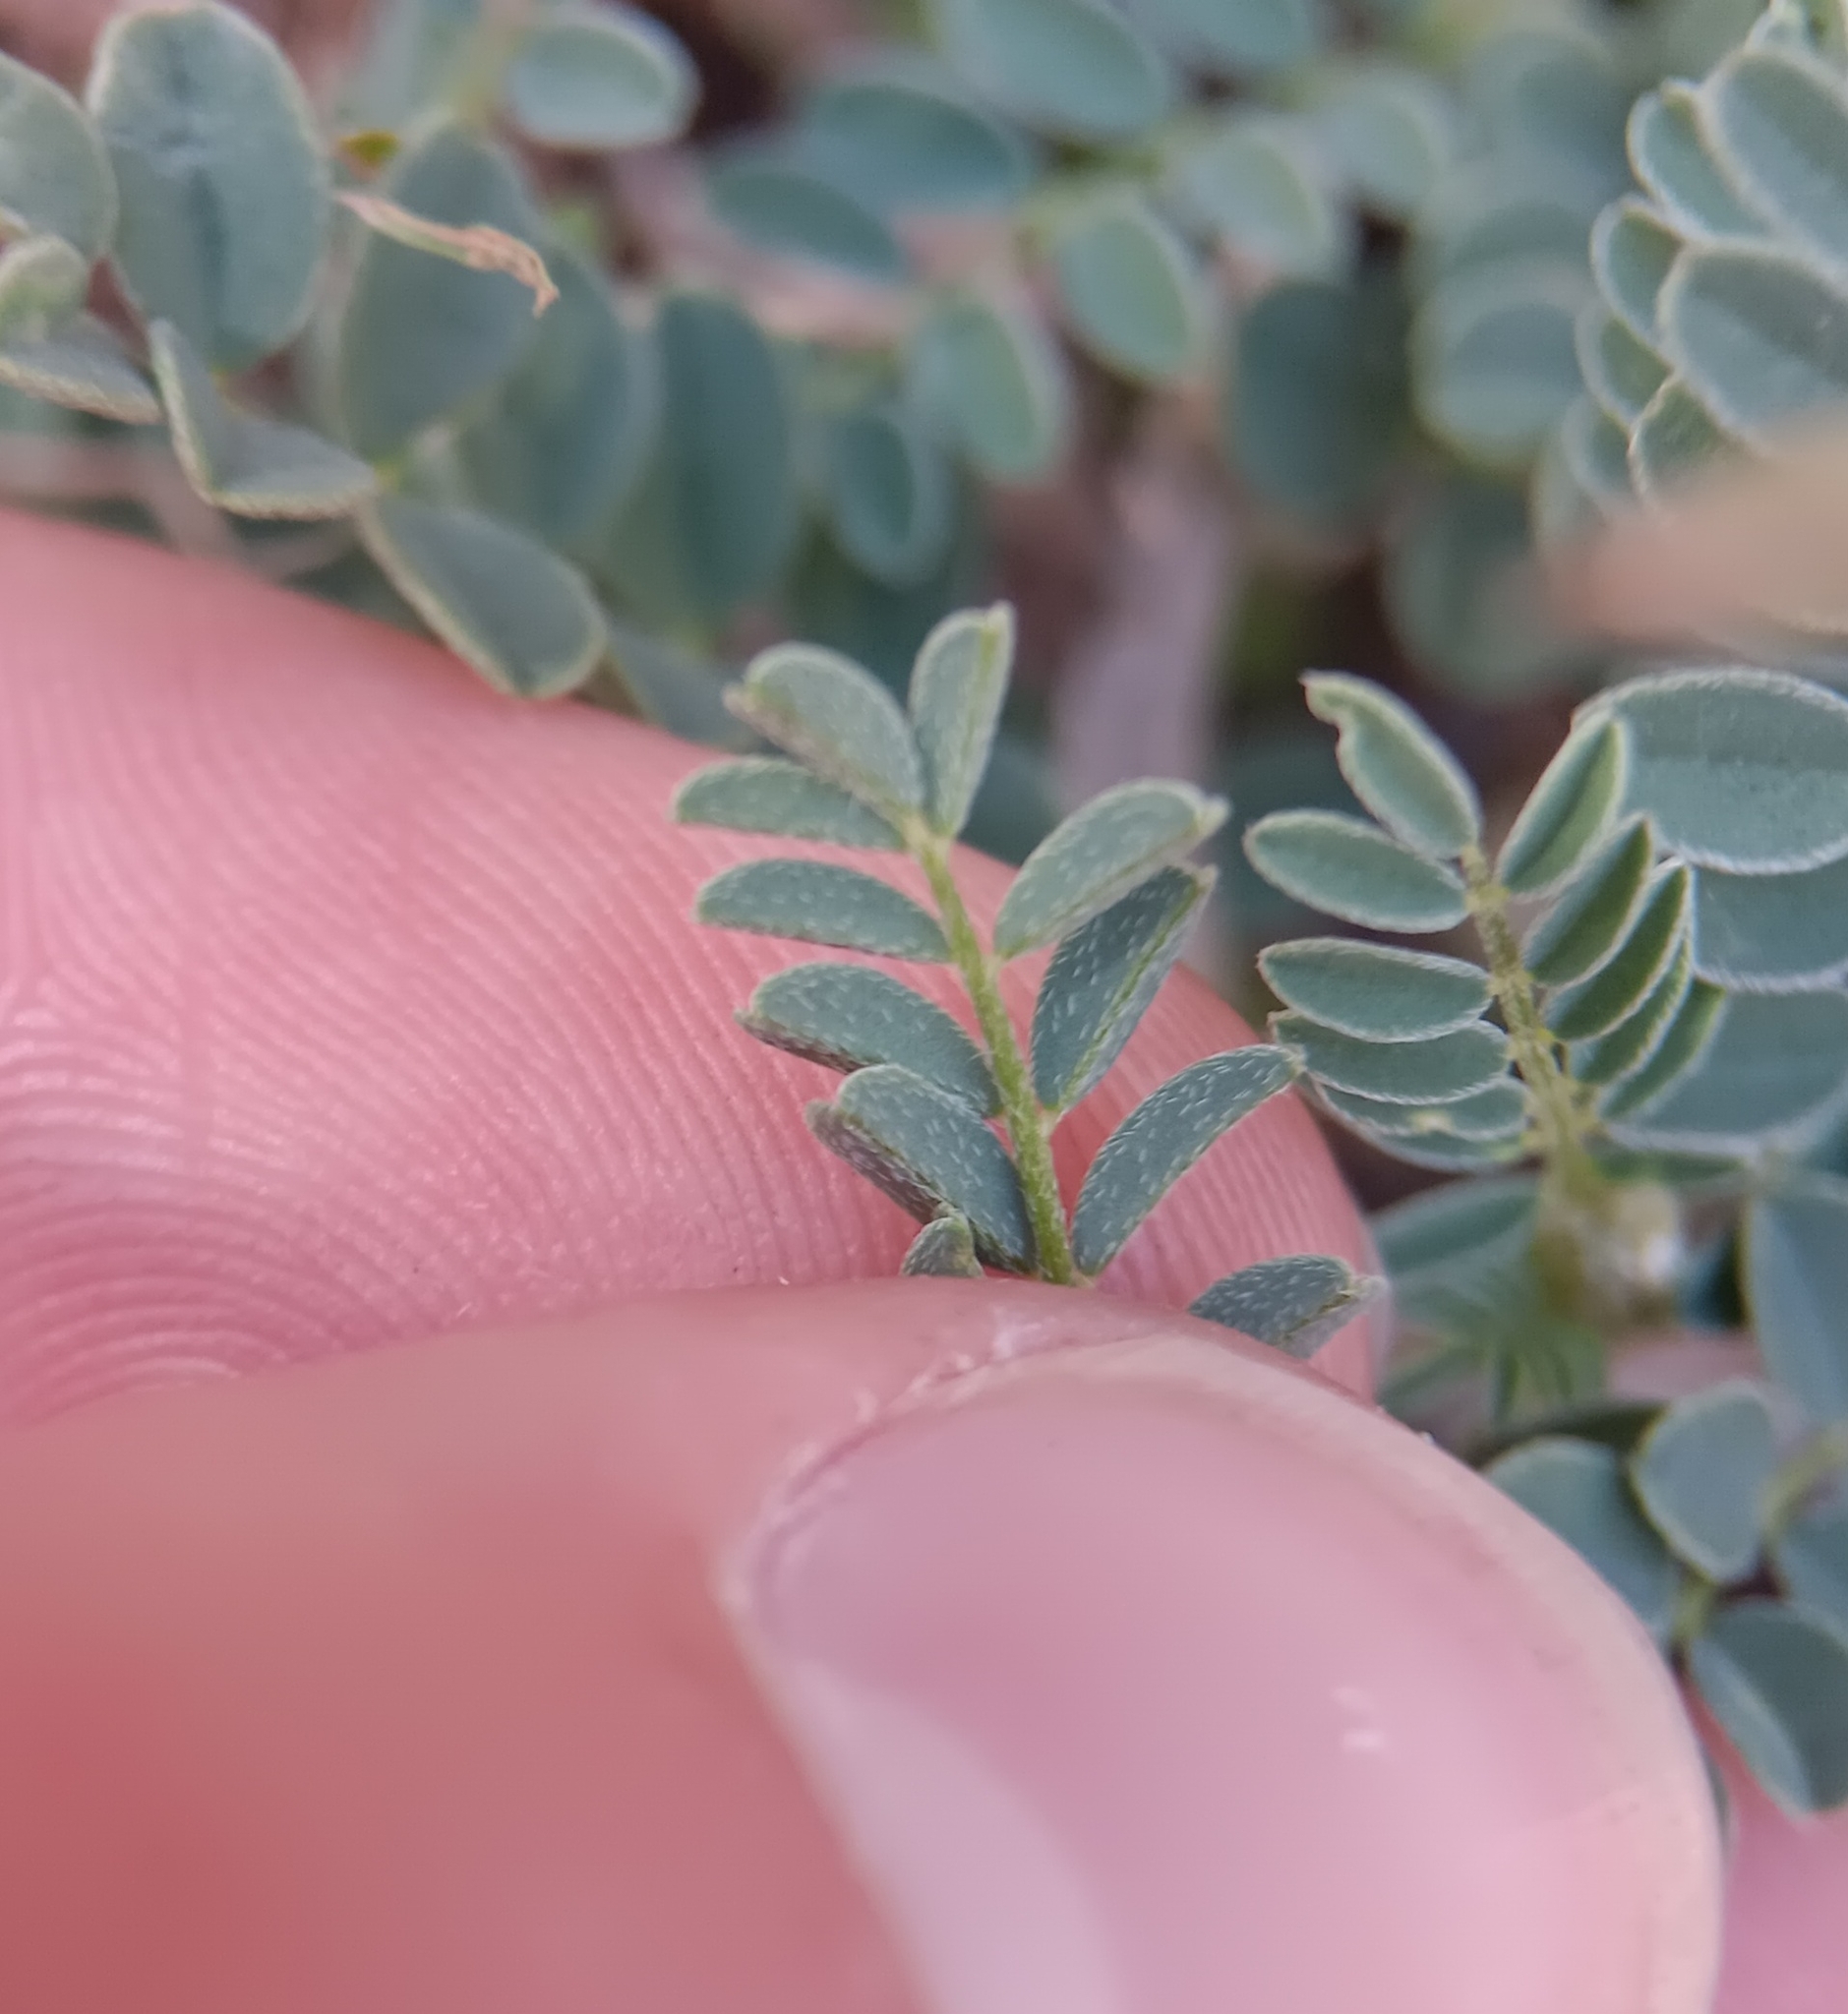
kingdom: Plantae
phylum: Tracheophyta
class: Magnoliopsida
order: Fabales
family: Fabaceae
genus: Astragalus
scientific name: Astragalus nothoxys
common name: Beaked milk-vetch
